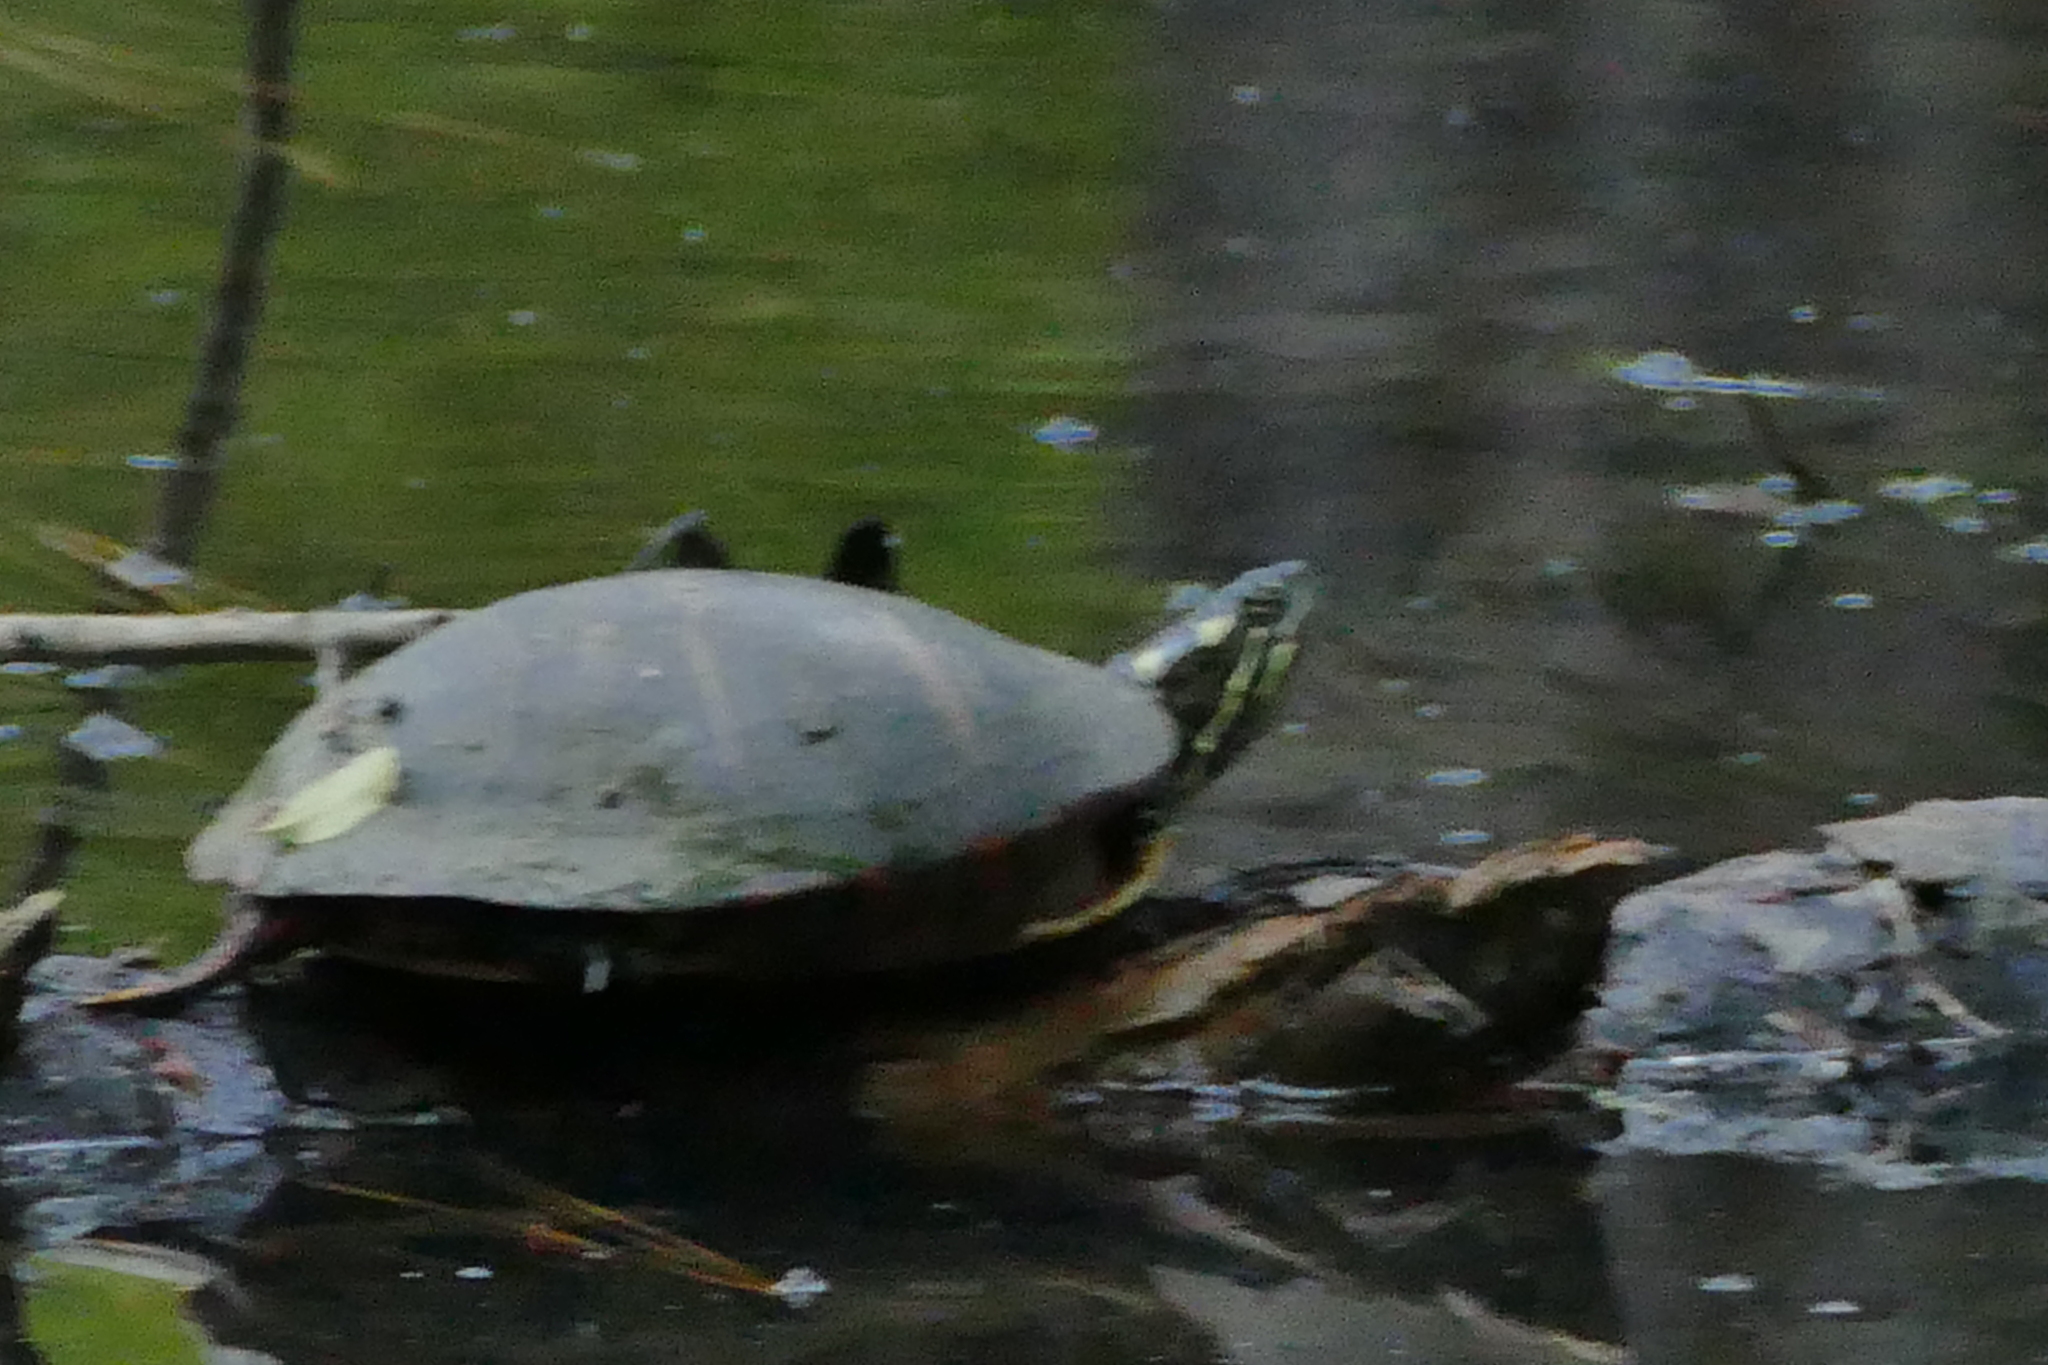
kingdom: Animalia
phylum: Chordata
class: Testudines
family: Emydidae
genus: Chrysemys
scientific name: Chrysemys picta
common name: Painted turtle
